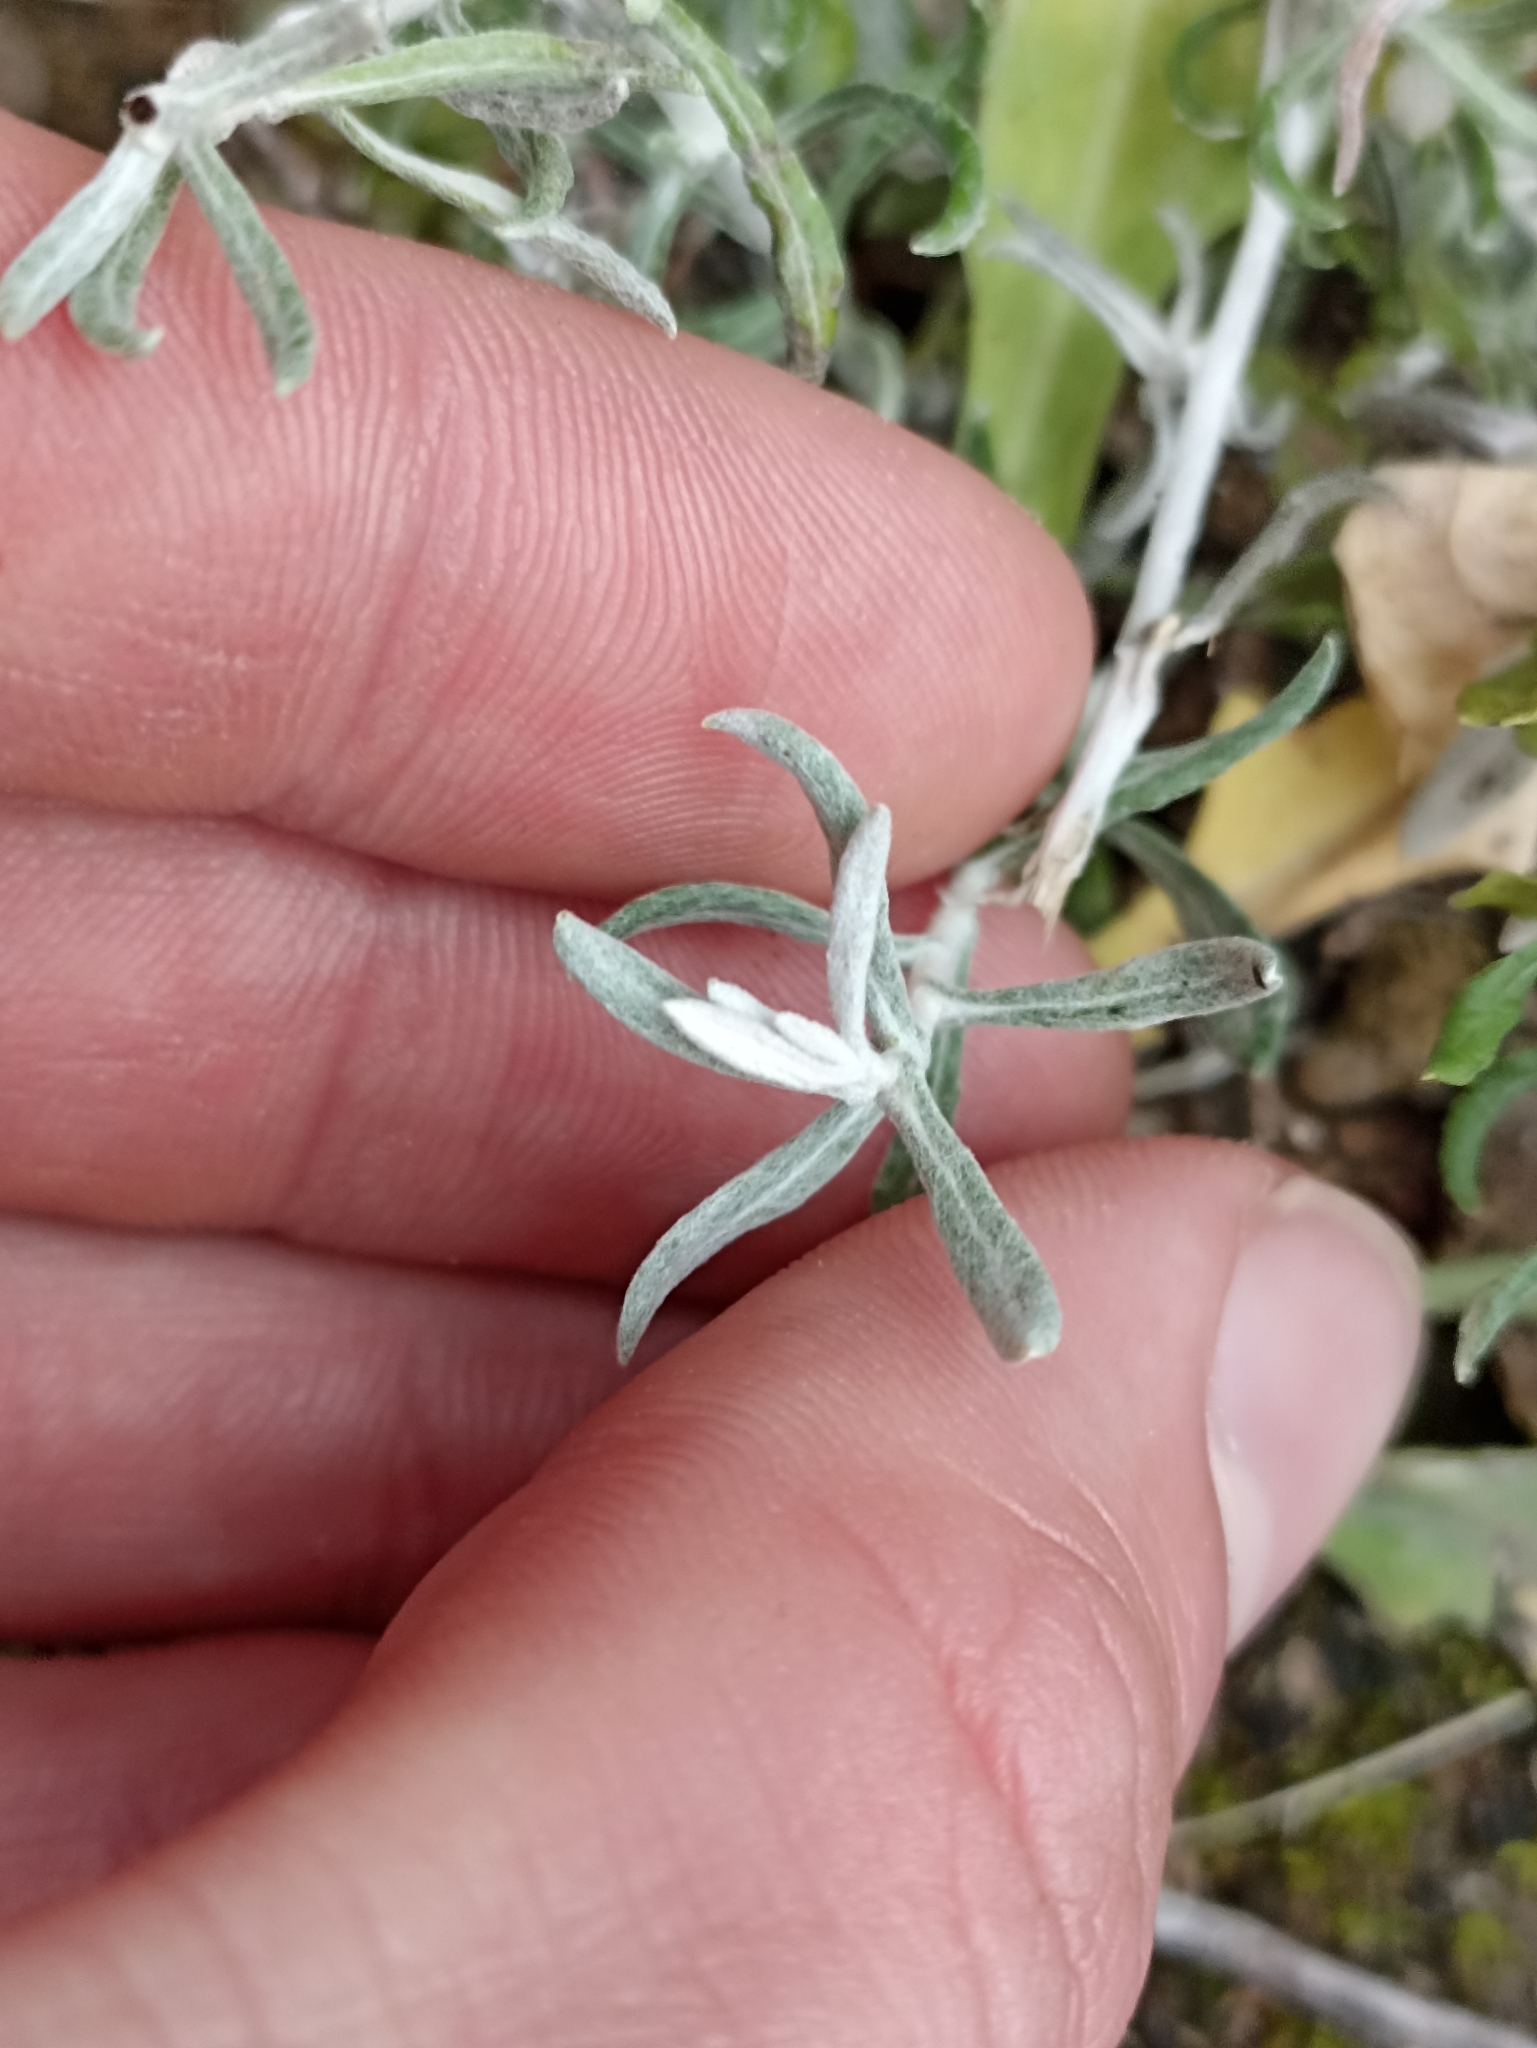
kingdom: Plantae
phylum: Tracheophyta
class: Magnoliopsida
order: Asterales
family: Asteraceae
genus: Phagnalon
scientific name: Phagnalon
